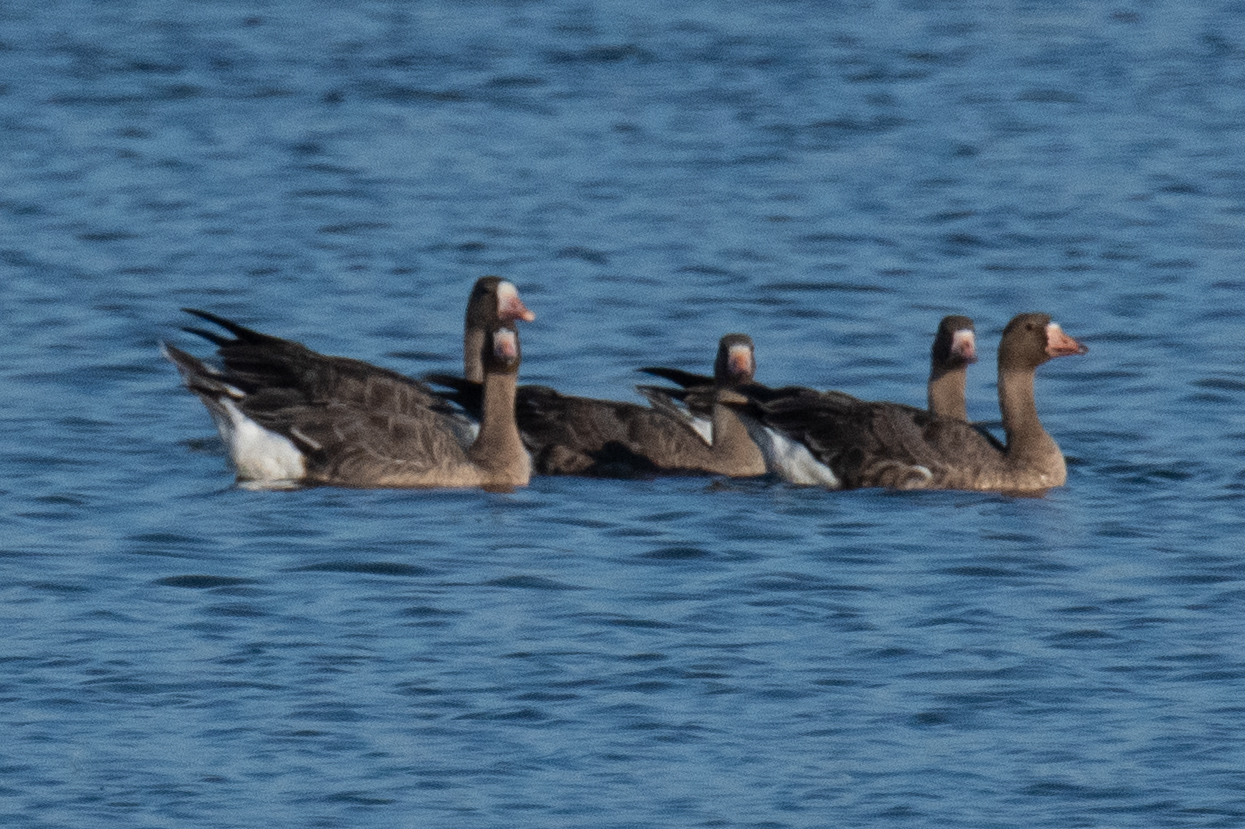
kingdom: Animalia
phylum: Chordata
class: Aves
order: Anseriformes
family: Anatidae
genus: Anser
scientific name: Anser albifrons
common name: Greater white-fronted goose
